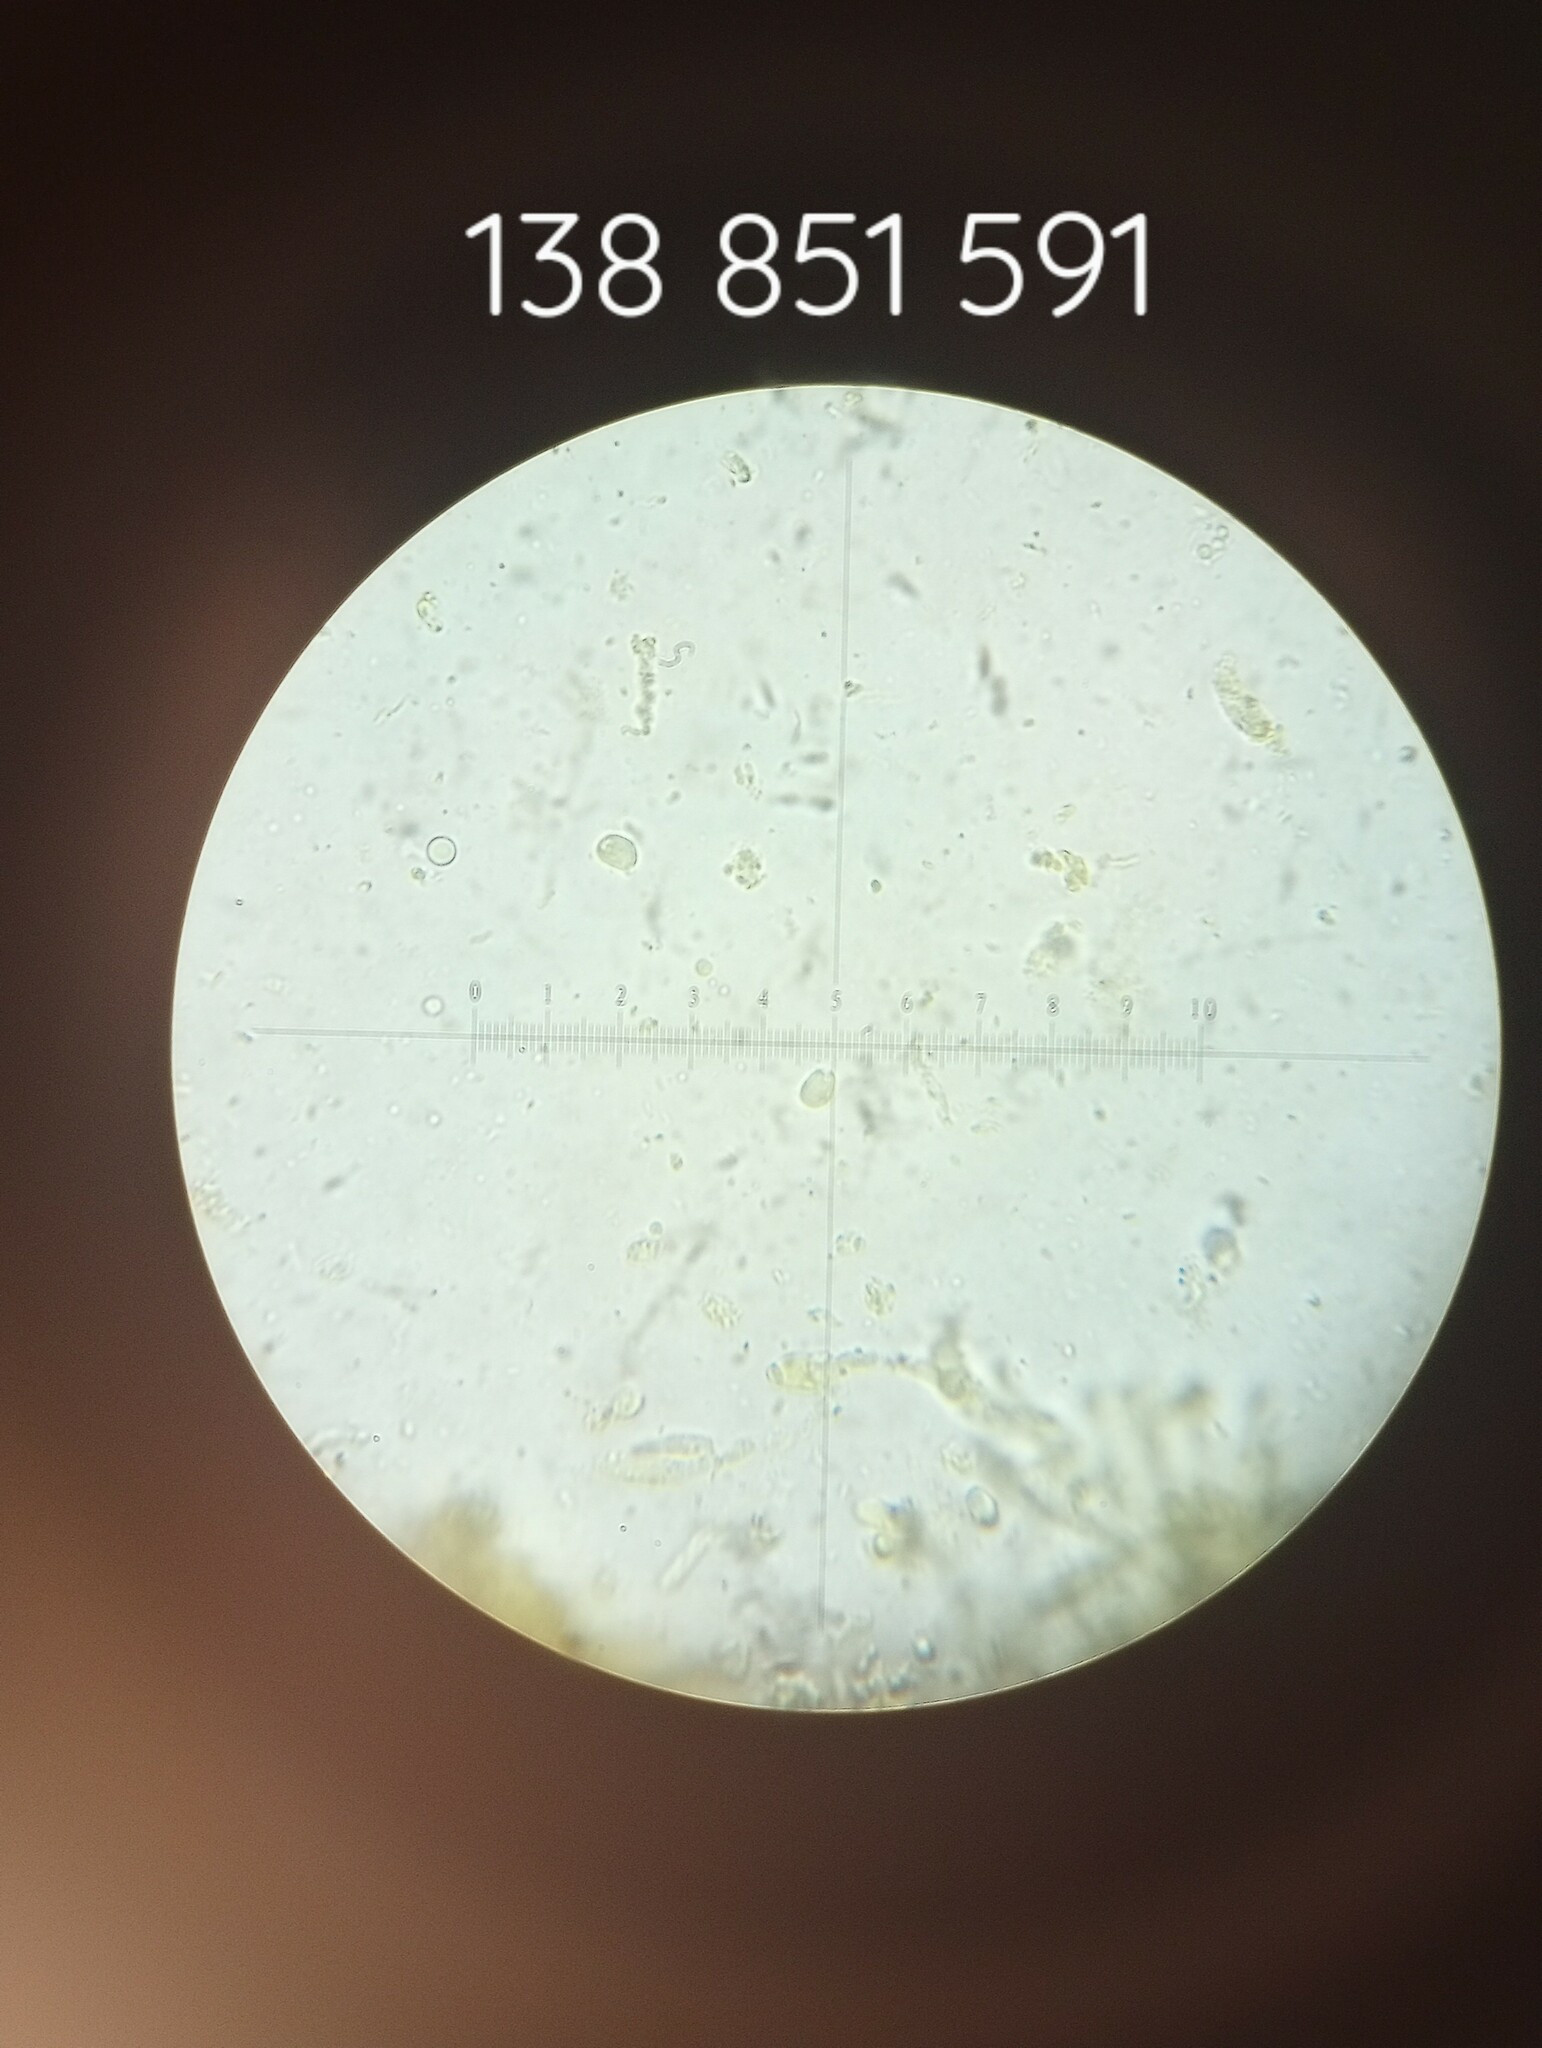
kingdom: Fungi
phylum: Basidiomycota
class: Agaricomycetes
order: Agaricales
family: Tricholomataceae
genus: Tricholoma
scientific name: Tricholoma caligatum
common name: True booted knight
